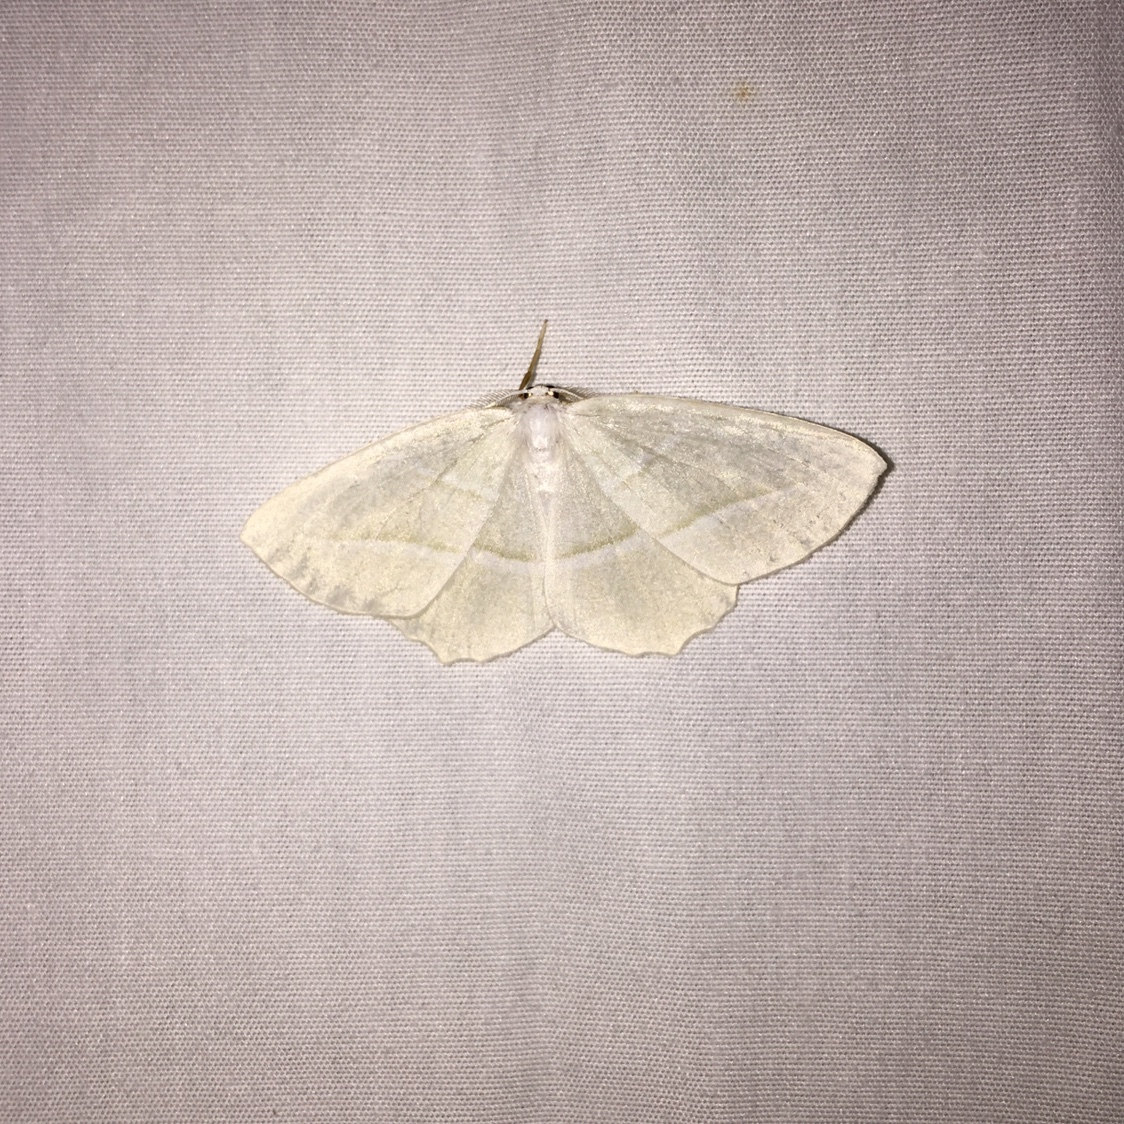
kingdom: Animalia
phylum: Arthropoda
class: Insecta
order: Lepidoptera
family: Geometridae
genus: Campaea
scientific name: Campaea perlata
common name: Fringed looper
